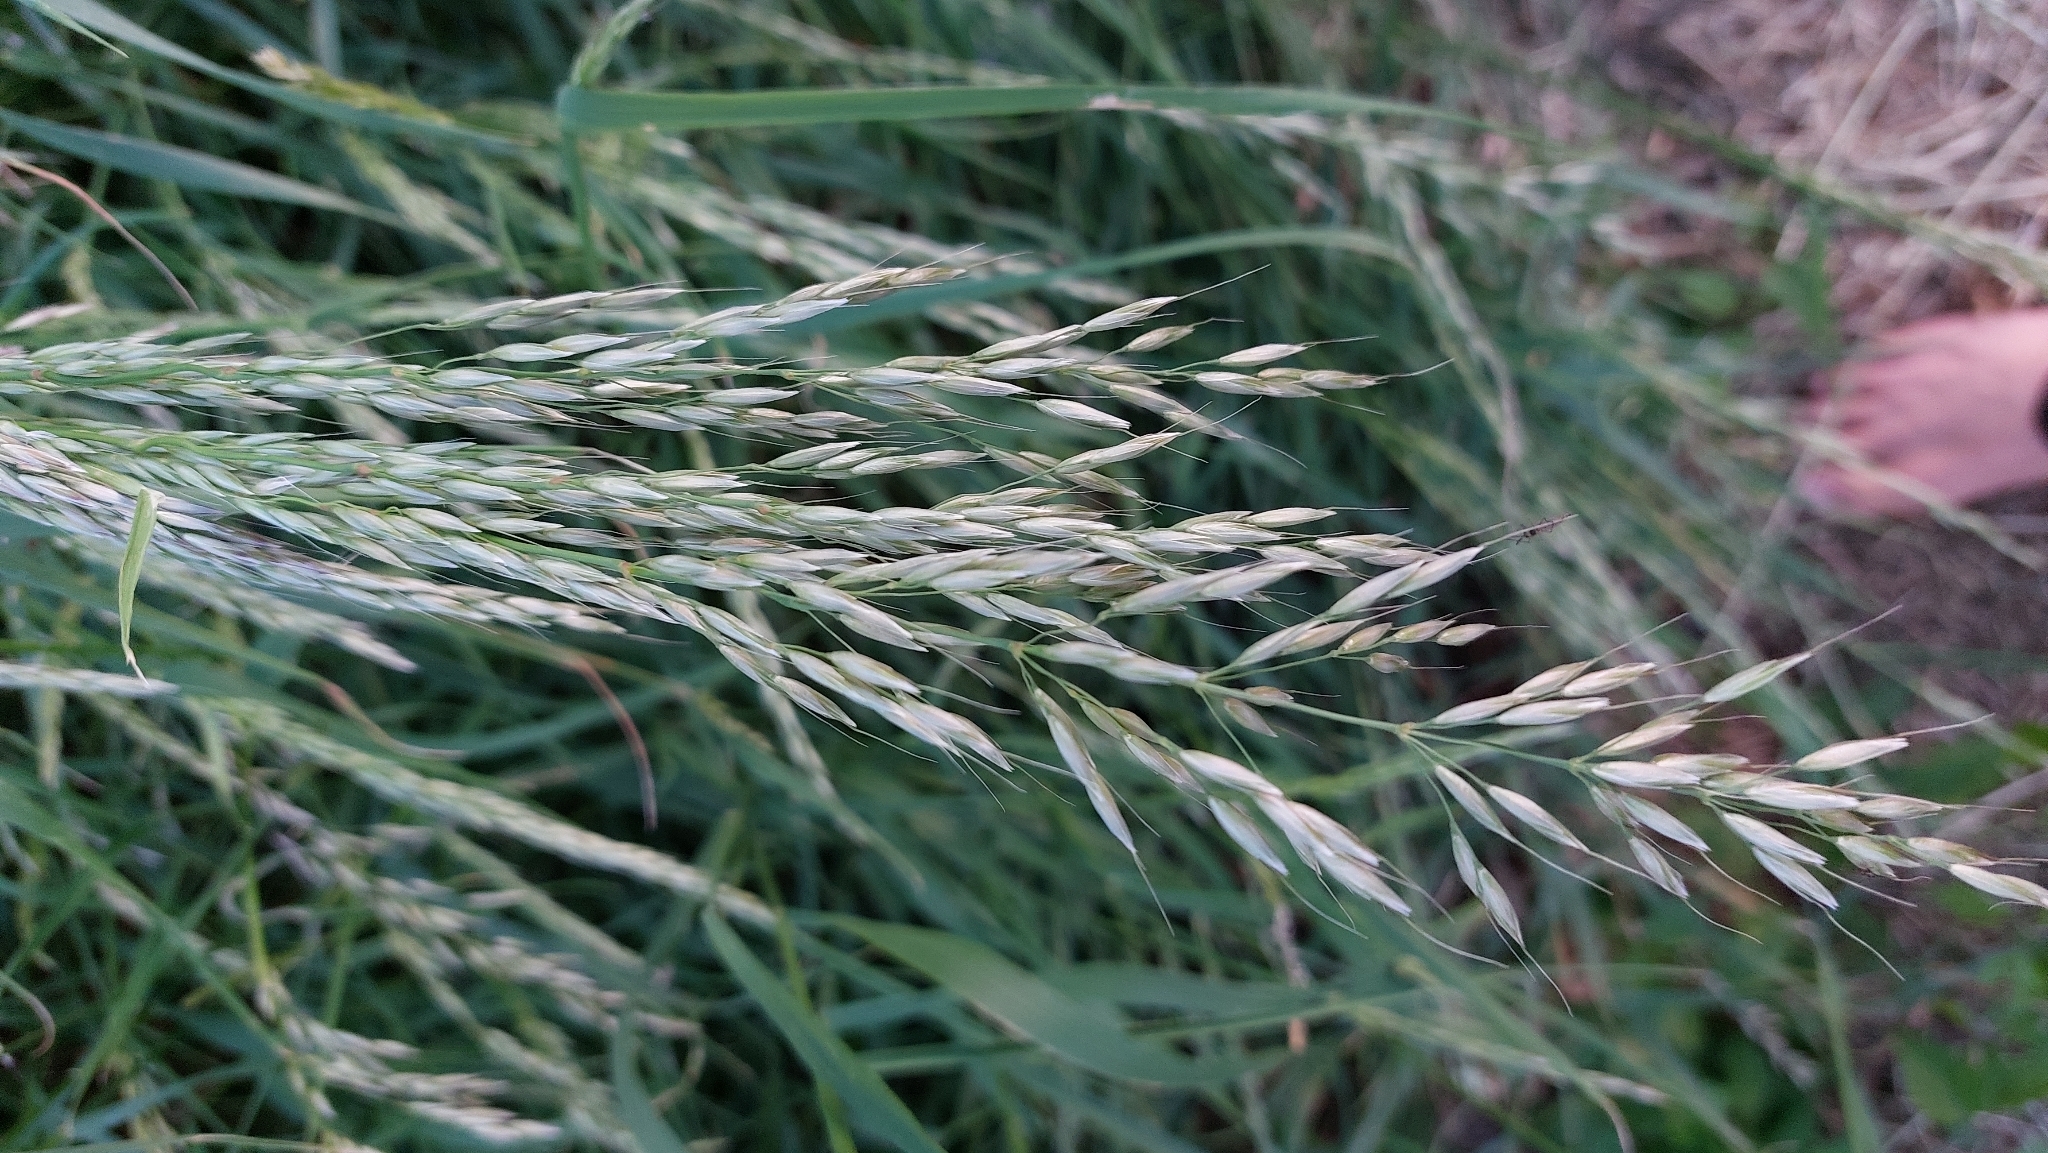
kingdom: Plantae
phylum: Tracheophyta
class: Liliopsida
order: Poales
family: Poaceae
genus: Arrhenatherum
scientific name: Arrhenatherum elatius
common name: Tall oatgrass
